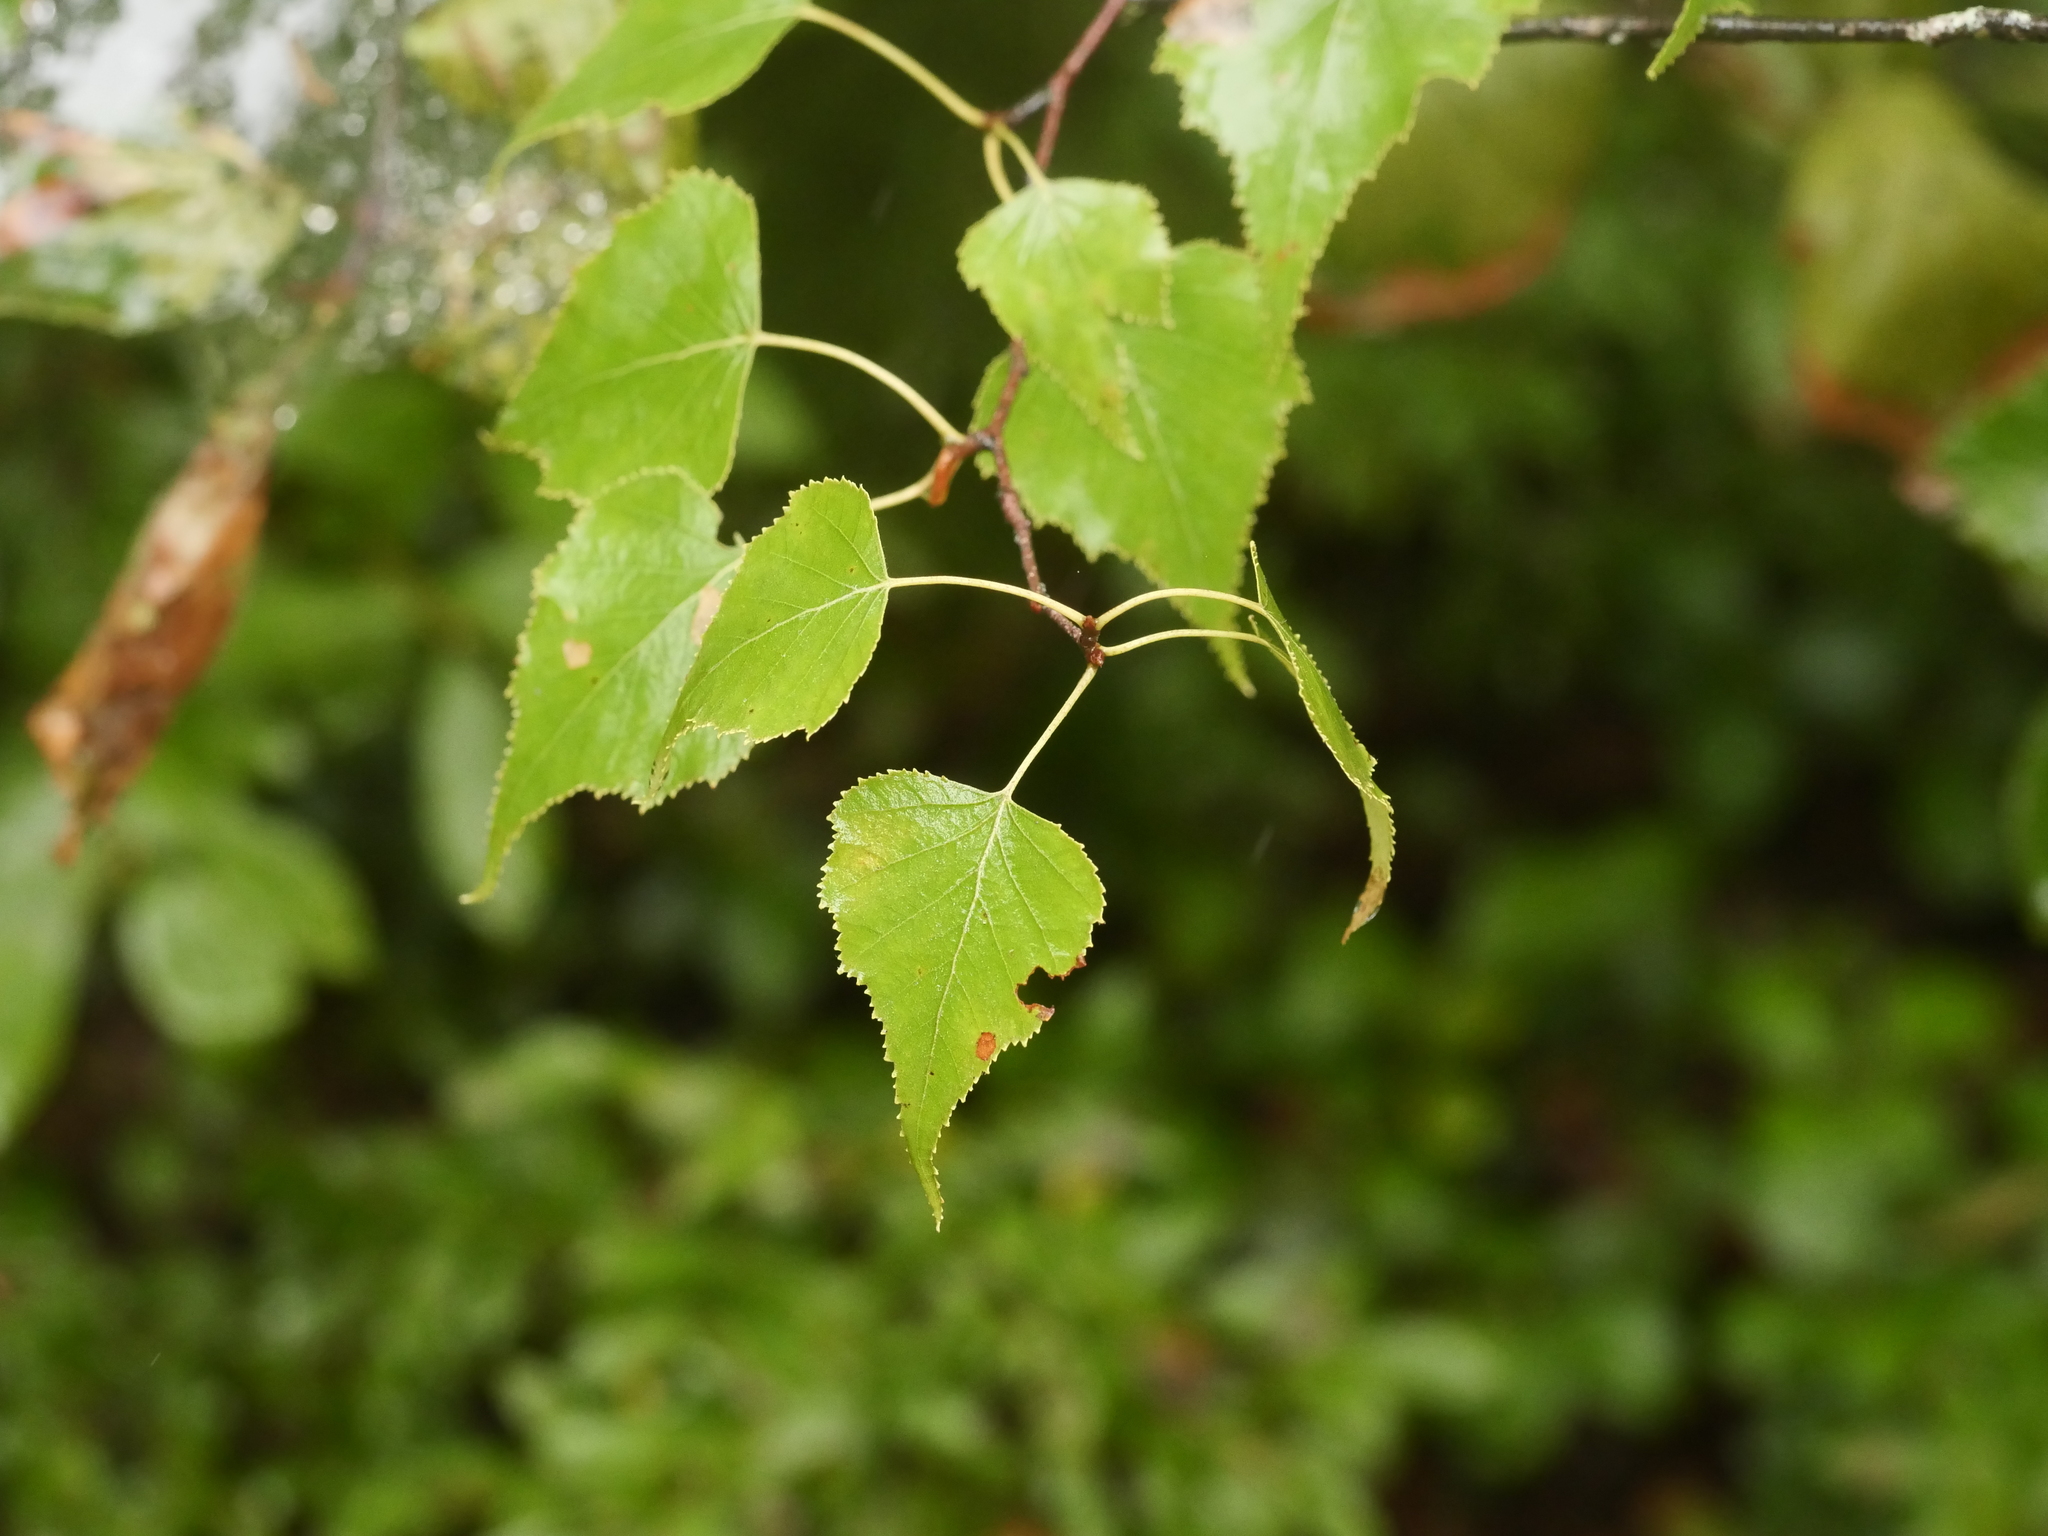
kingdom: Plantae
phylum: Tracheophyta
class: Magnoliopsida
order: Fagales
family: Betulaceae
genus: Betula
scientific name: Betula populifolia
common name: Fire birch
